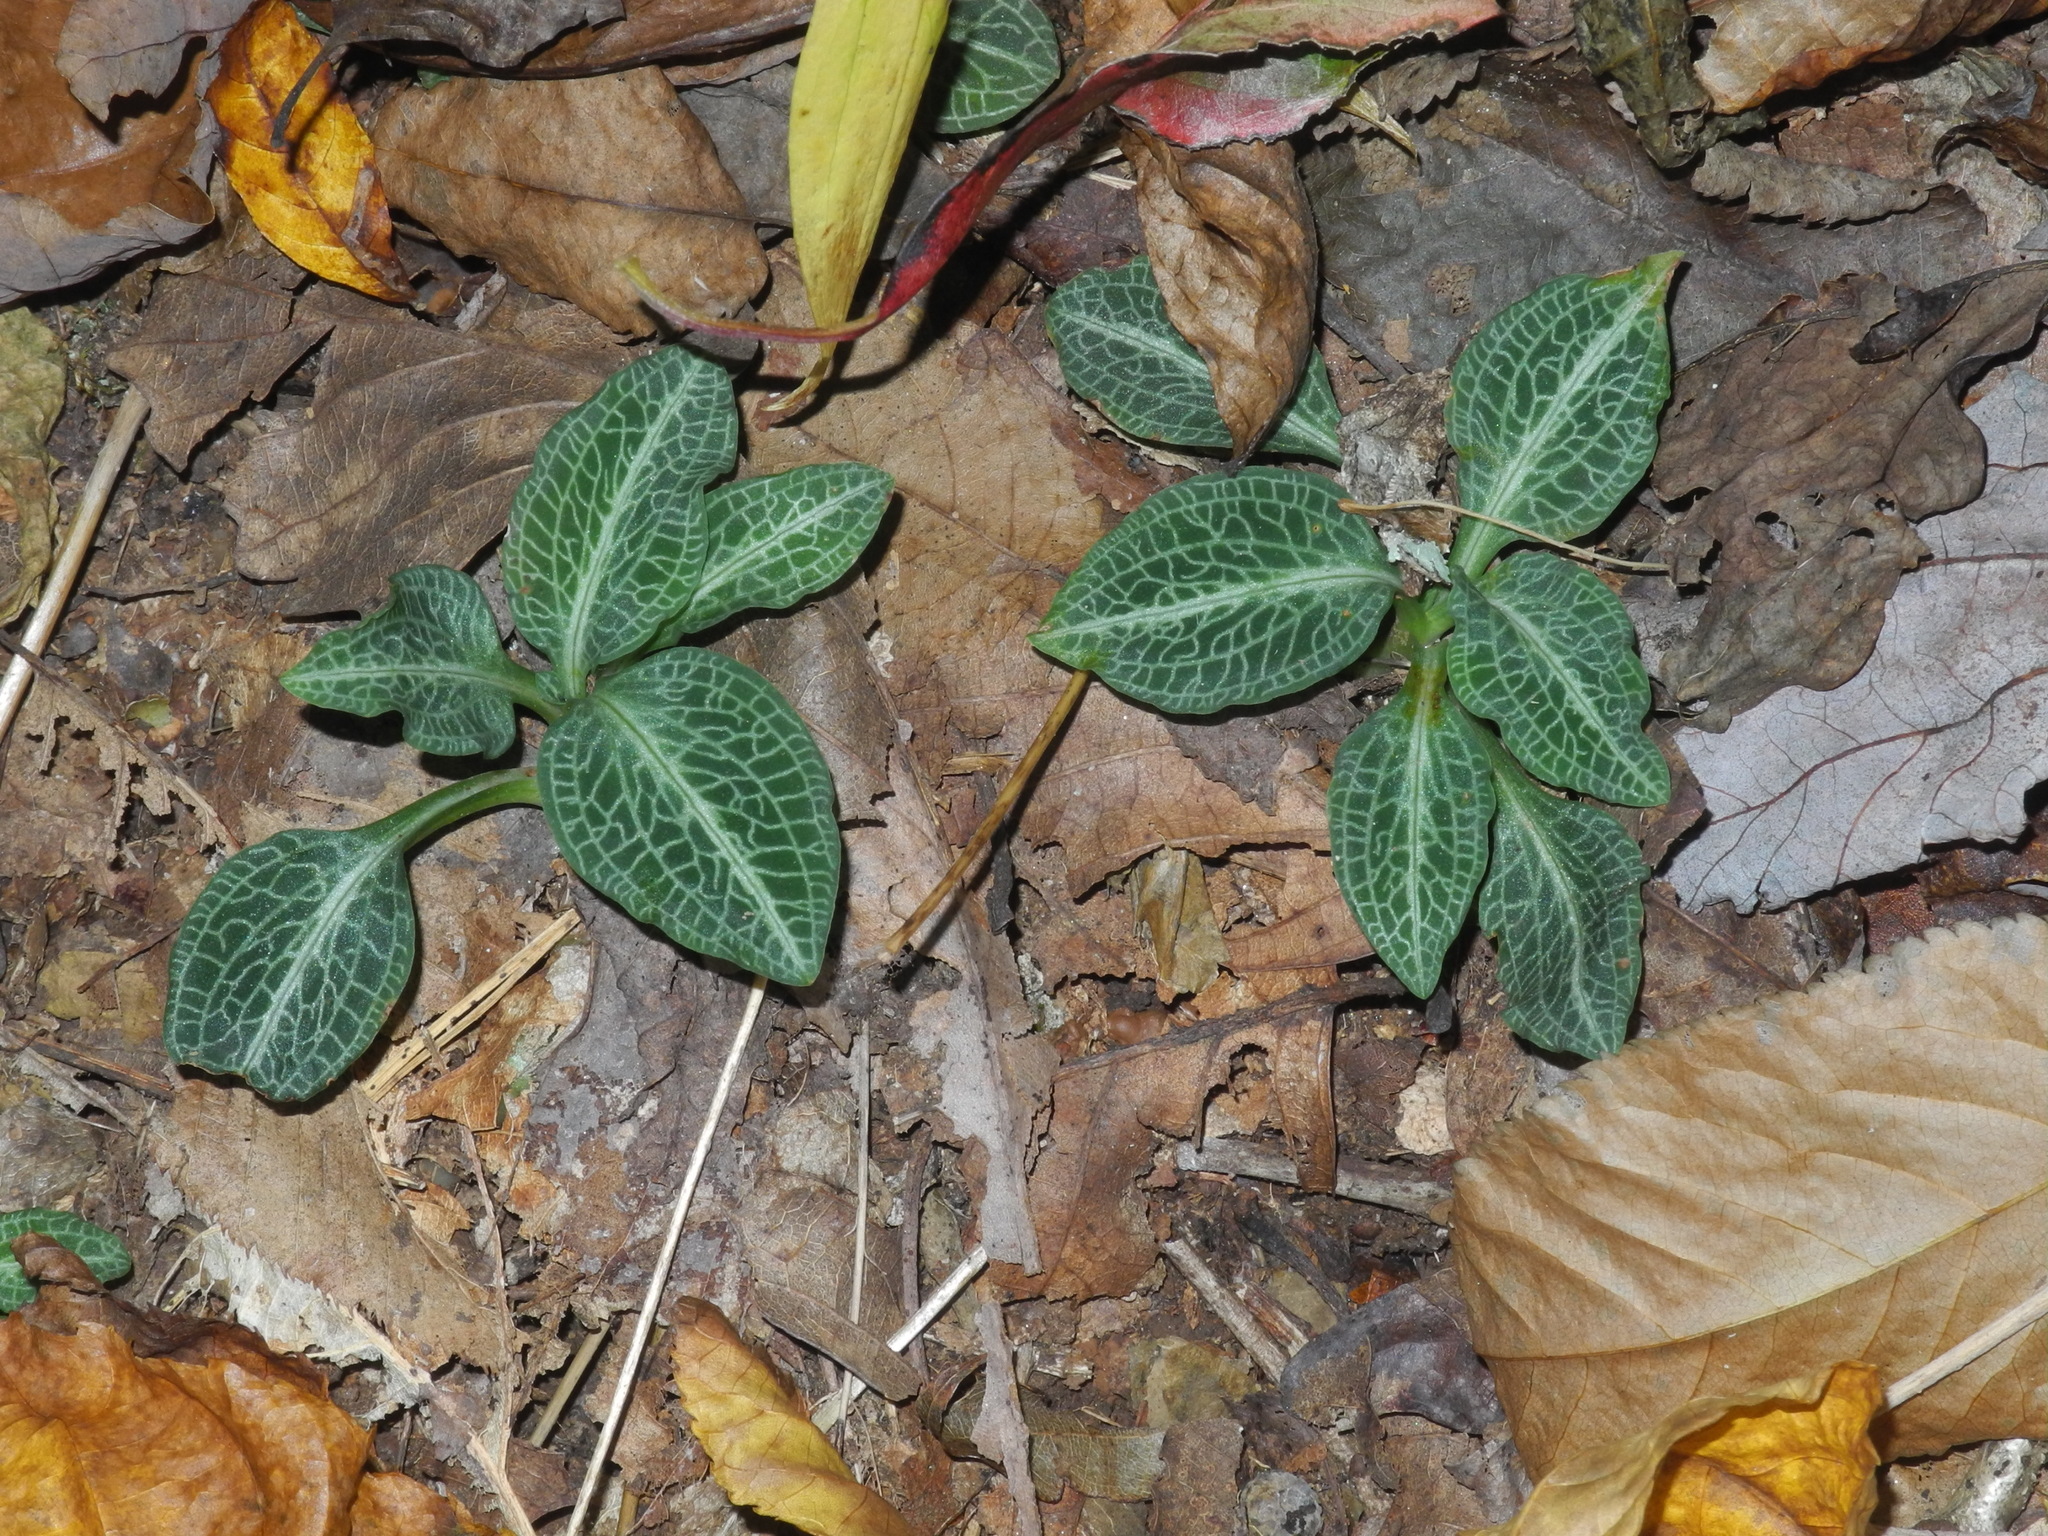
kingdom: Plantae
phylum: Tracheophyta
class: Liliopsida
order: Asparagales
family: Orchidaceae
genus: Goodyera
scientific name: Goodyera pubescens
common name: Downy rattlesnake-plantain
